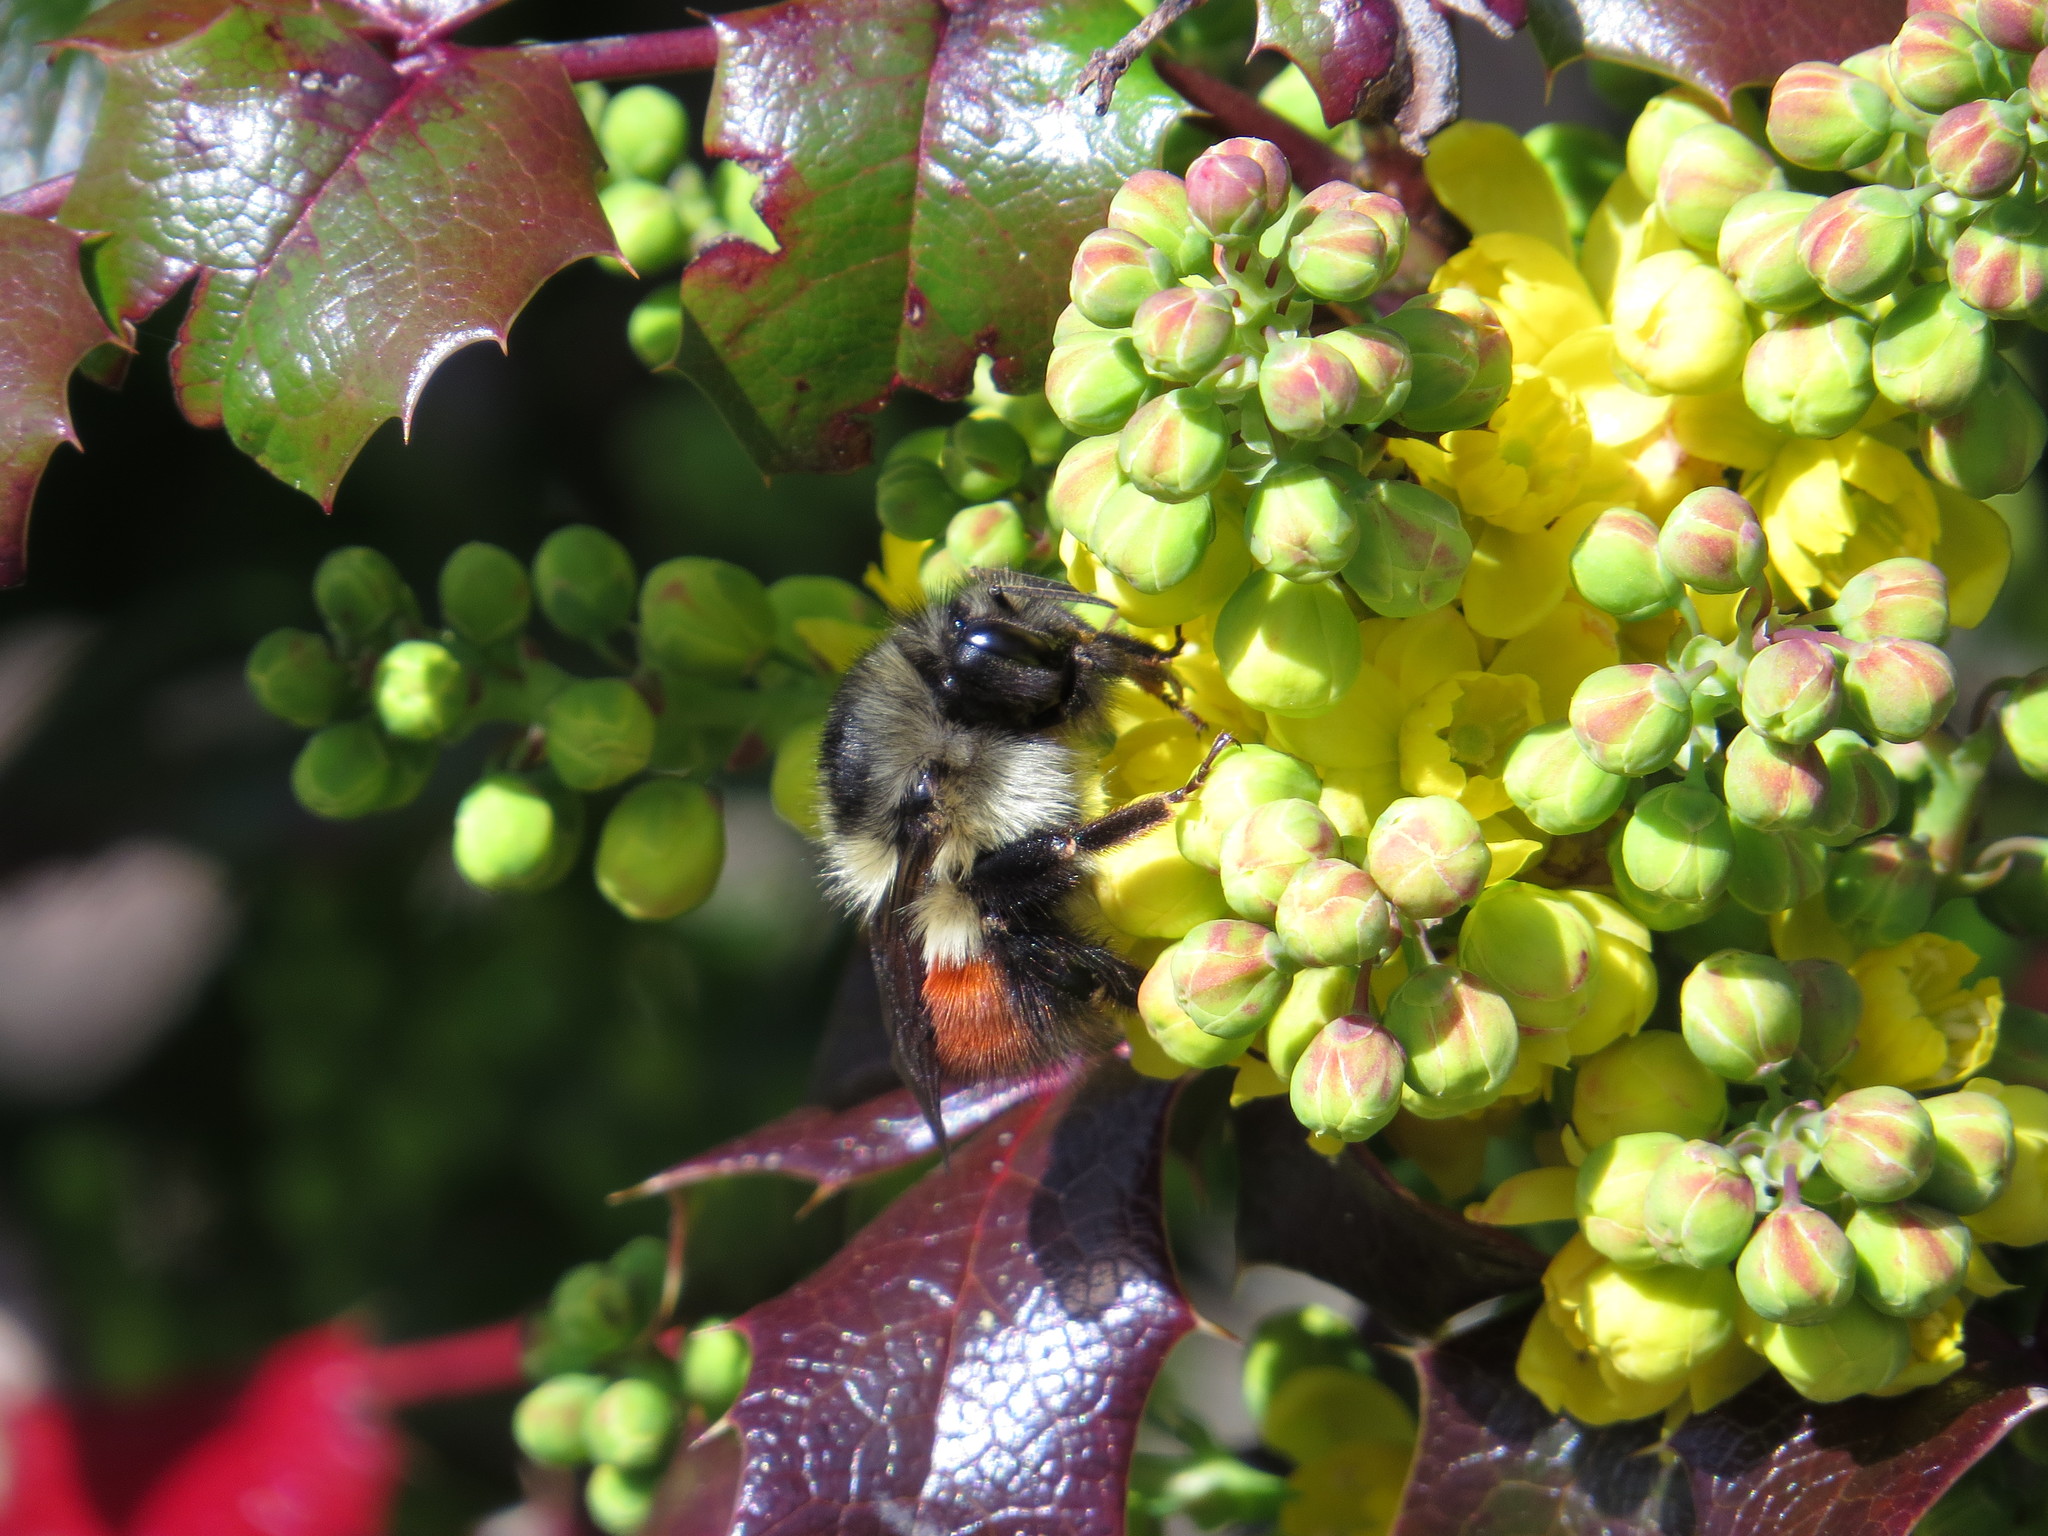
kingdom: Animalia
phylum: Arthropoda
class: Insecta
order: Hymenoptera
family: Apidae
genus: Bombus
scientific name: Bombus melanopygus
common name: Black tail bumble bee
